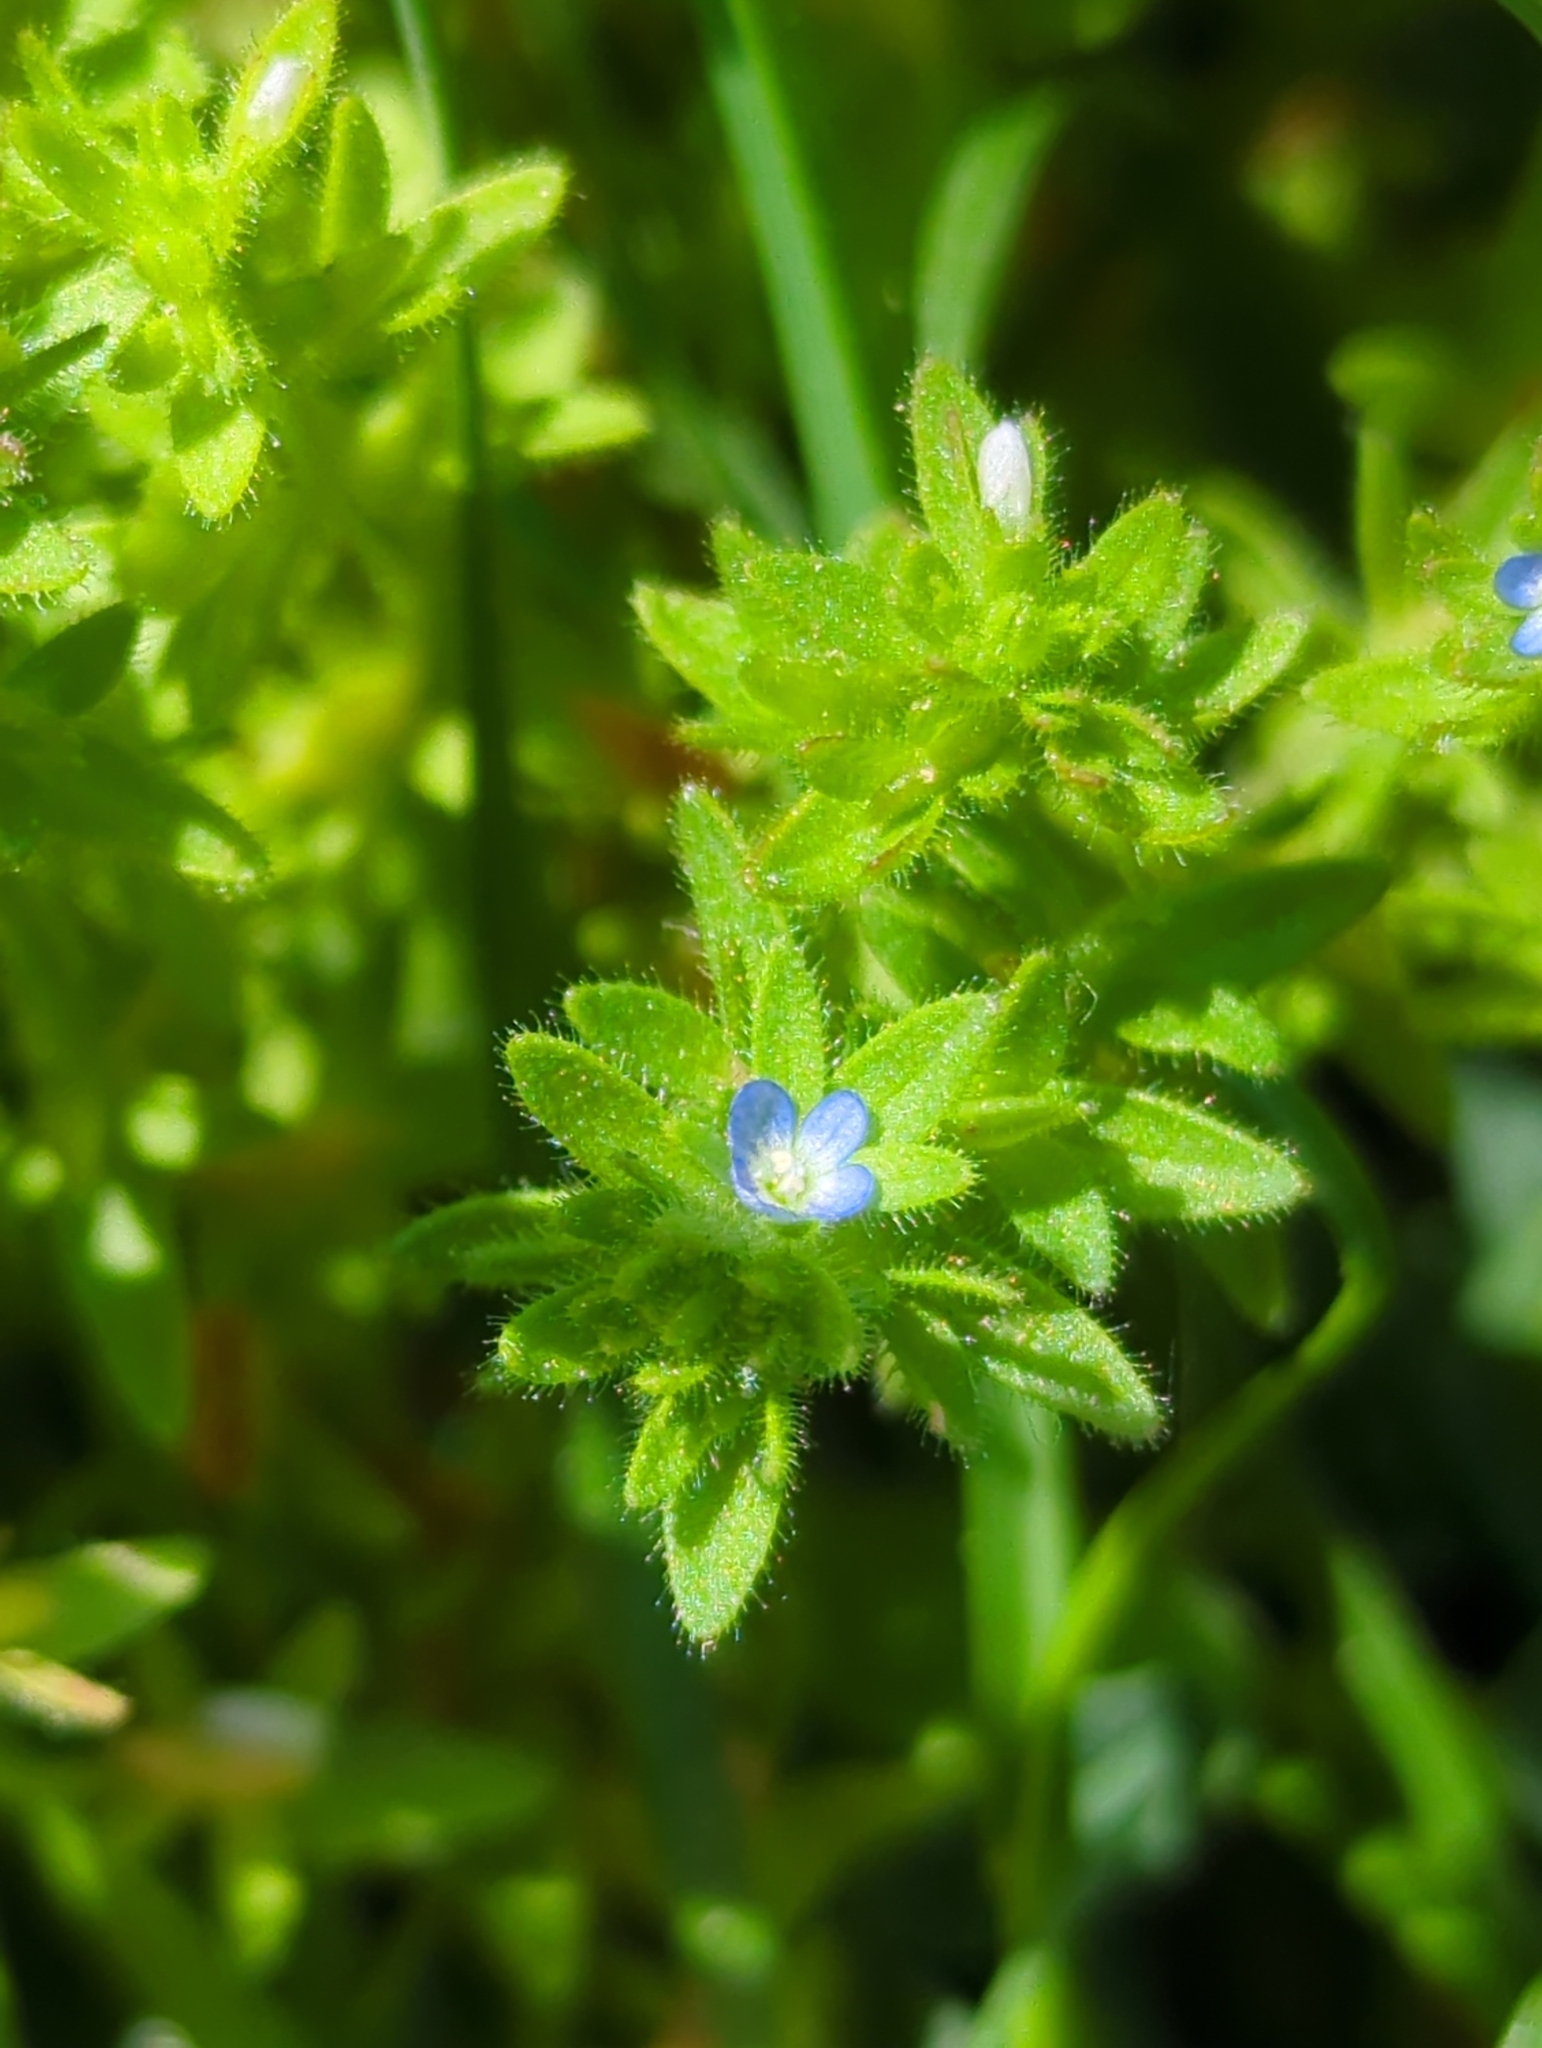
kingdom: Plantae
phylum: Tracheophyta
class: Magnoliopsida
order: Lamiales
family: Plantaginaceae
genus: Veronica
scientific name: Veronica arvensis
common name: Corn speedwell
